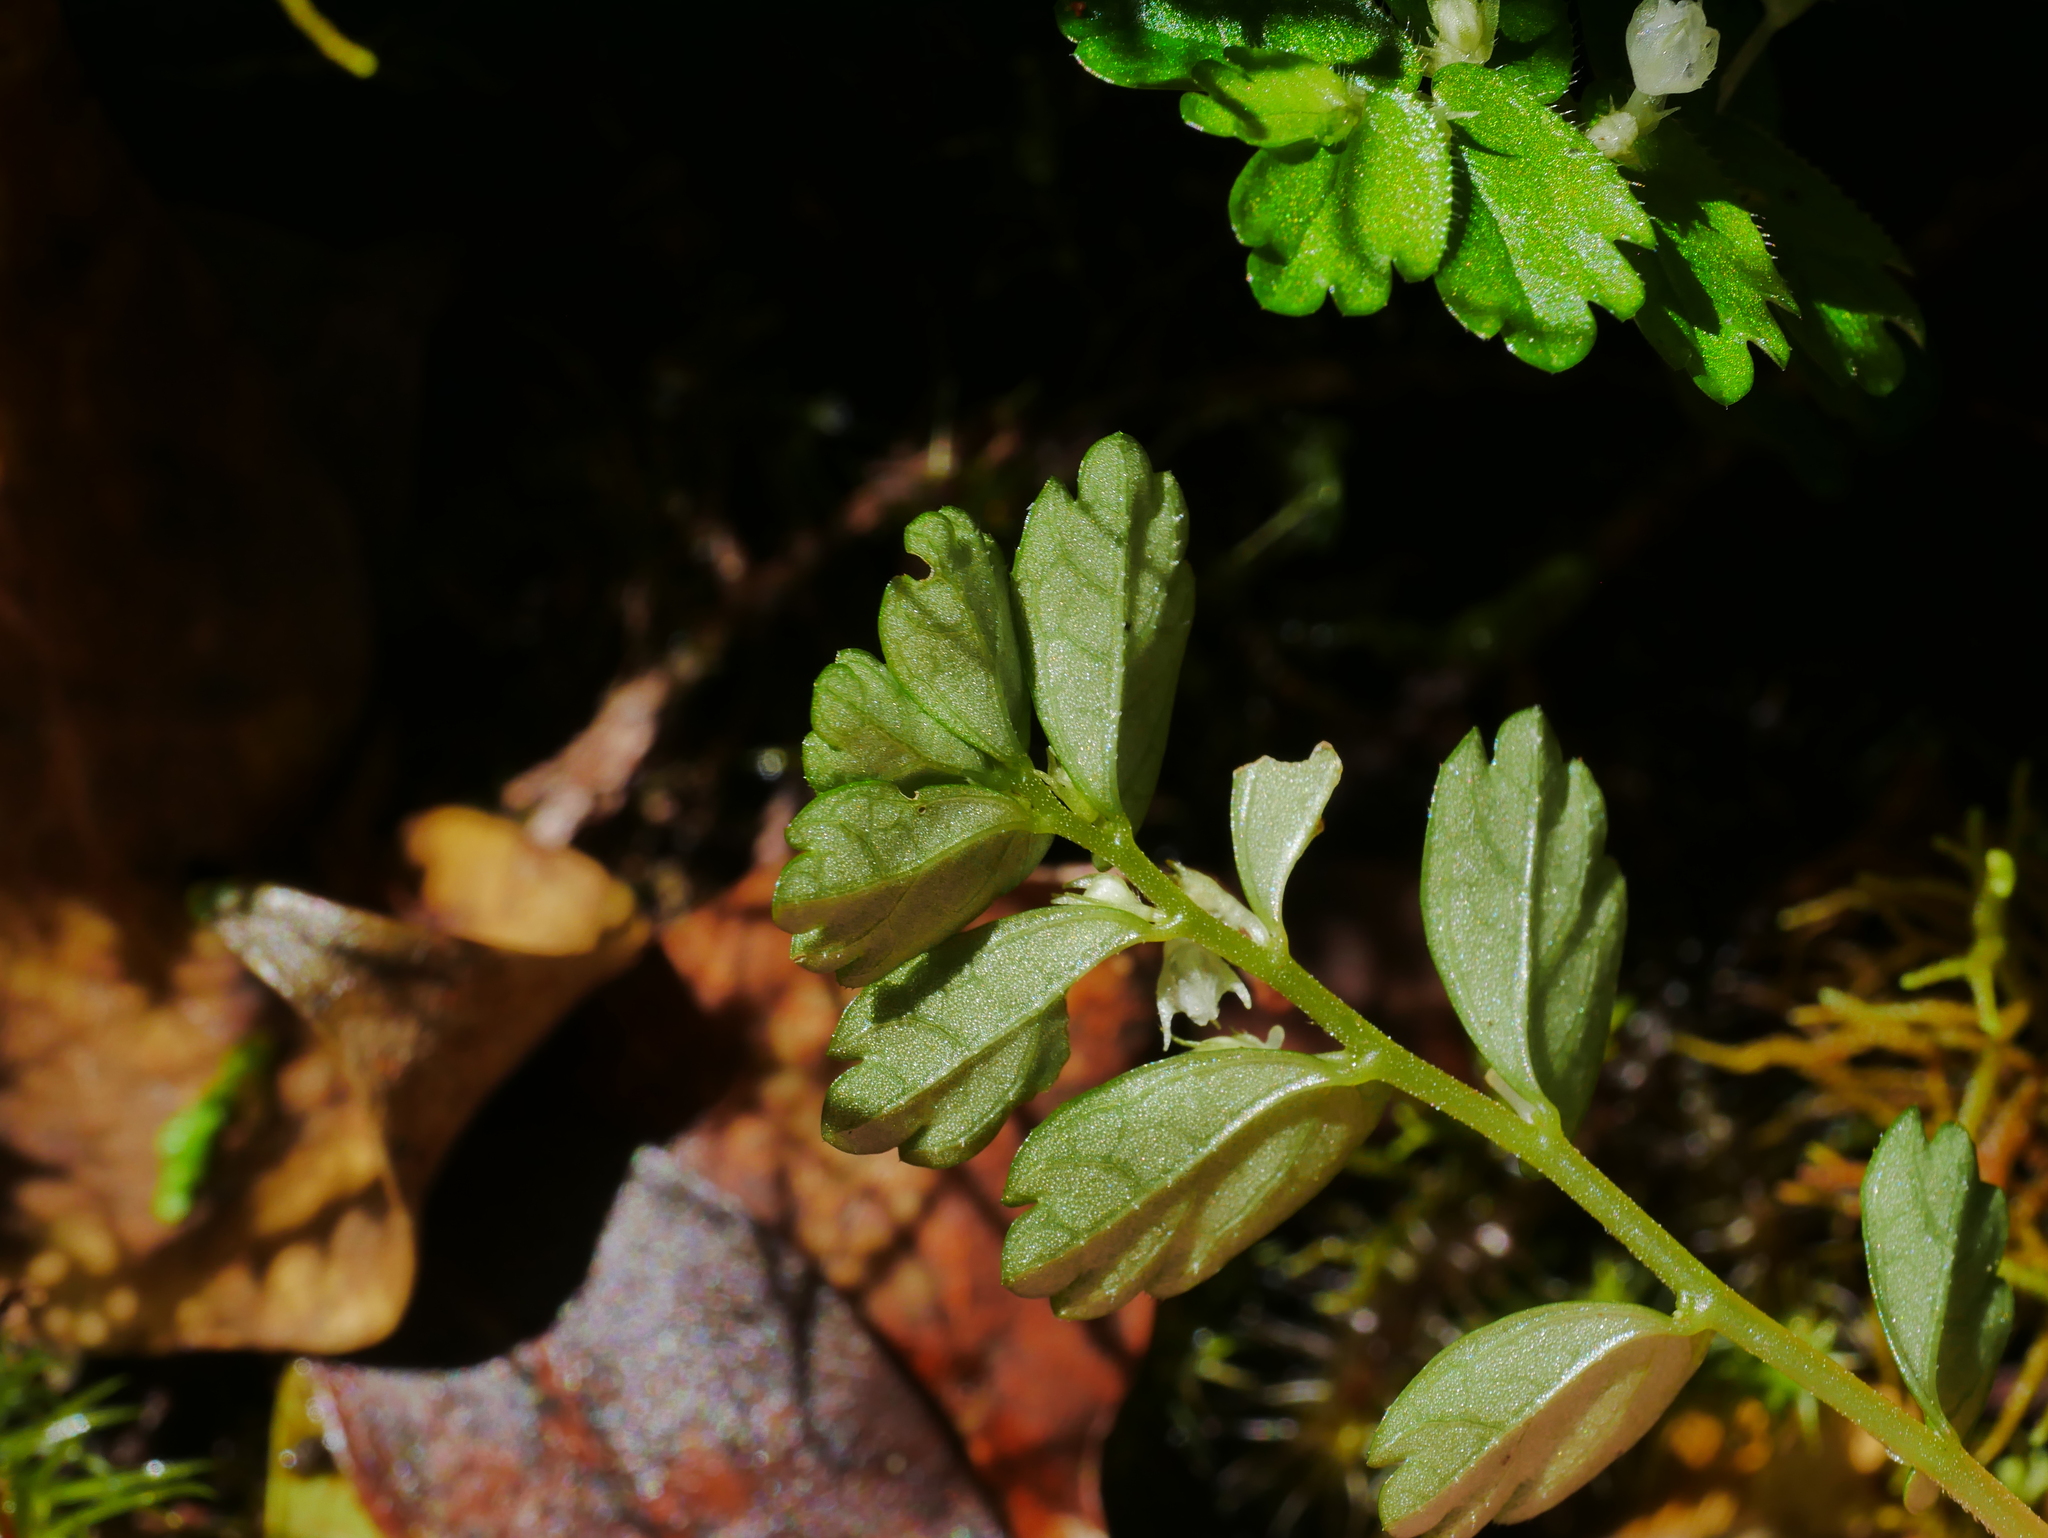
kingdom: Plantae
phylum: Tracheophyta
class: Magnoliopsida
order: Rosales
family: Urticaceae
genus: Elatostema
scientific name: Elatostema obtusum
